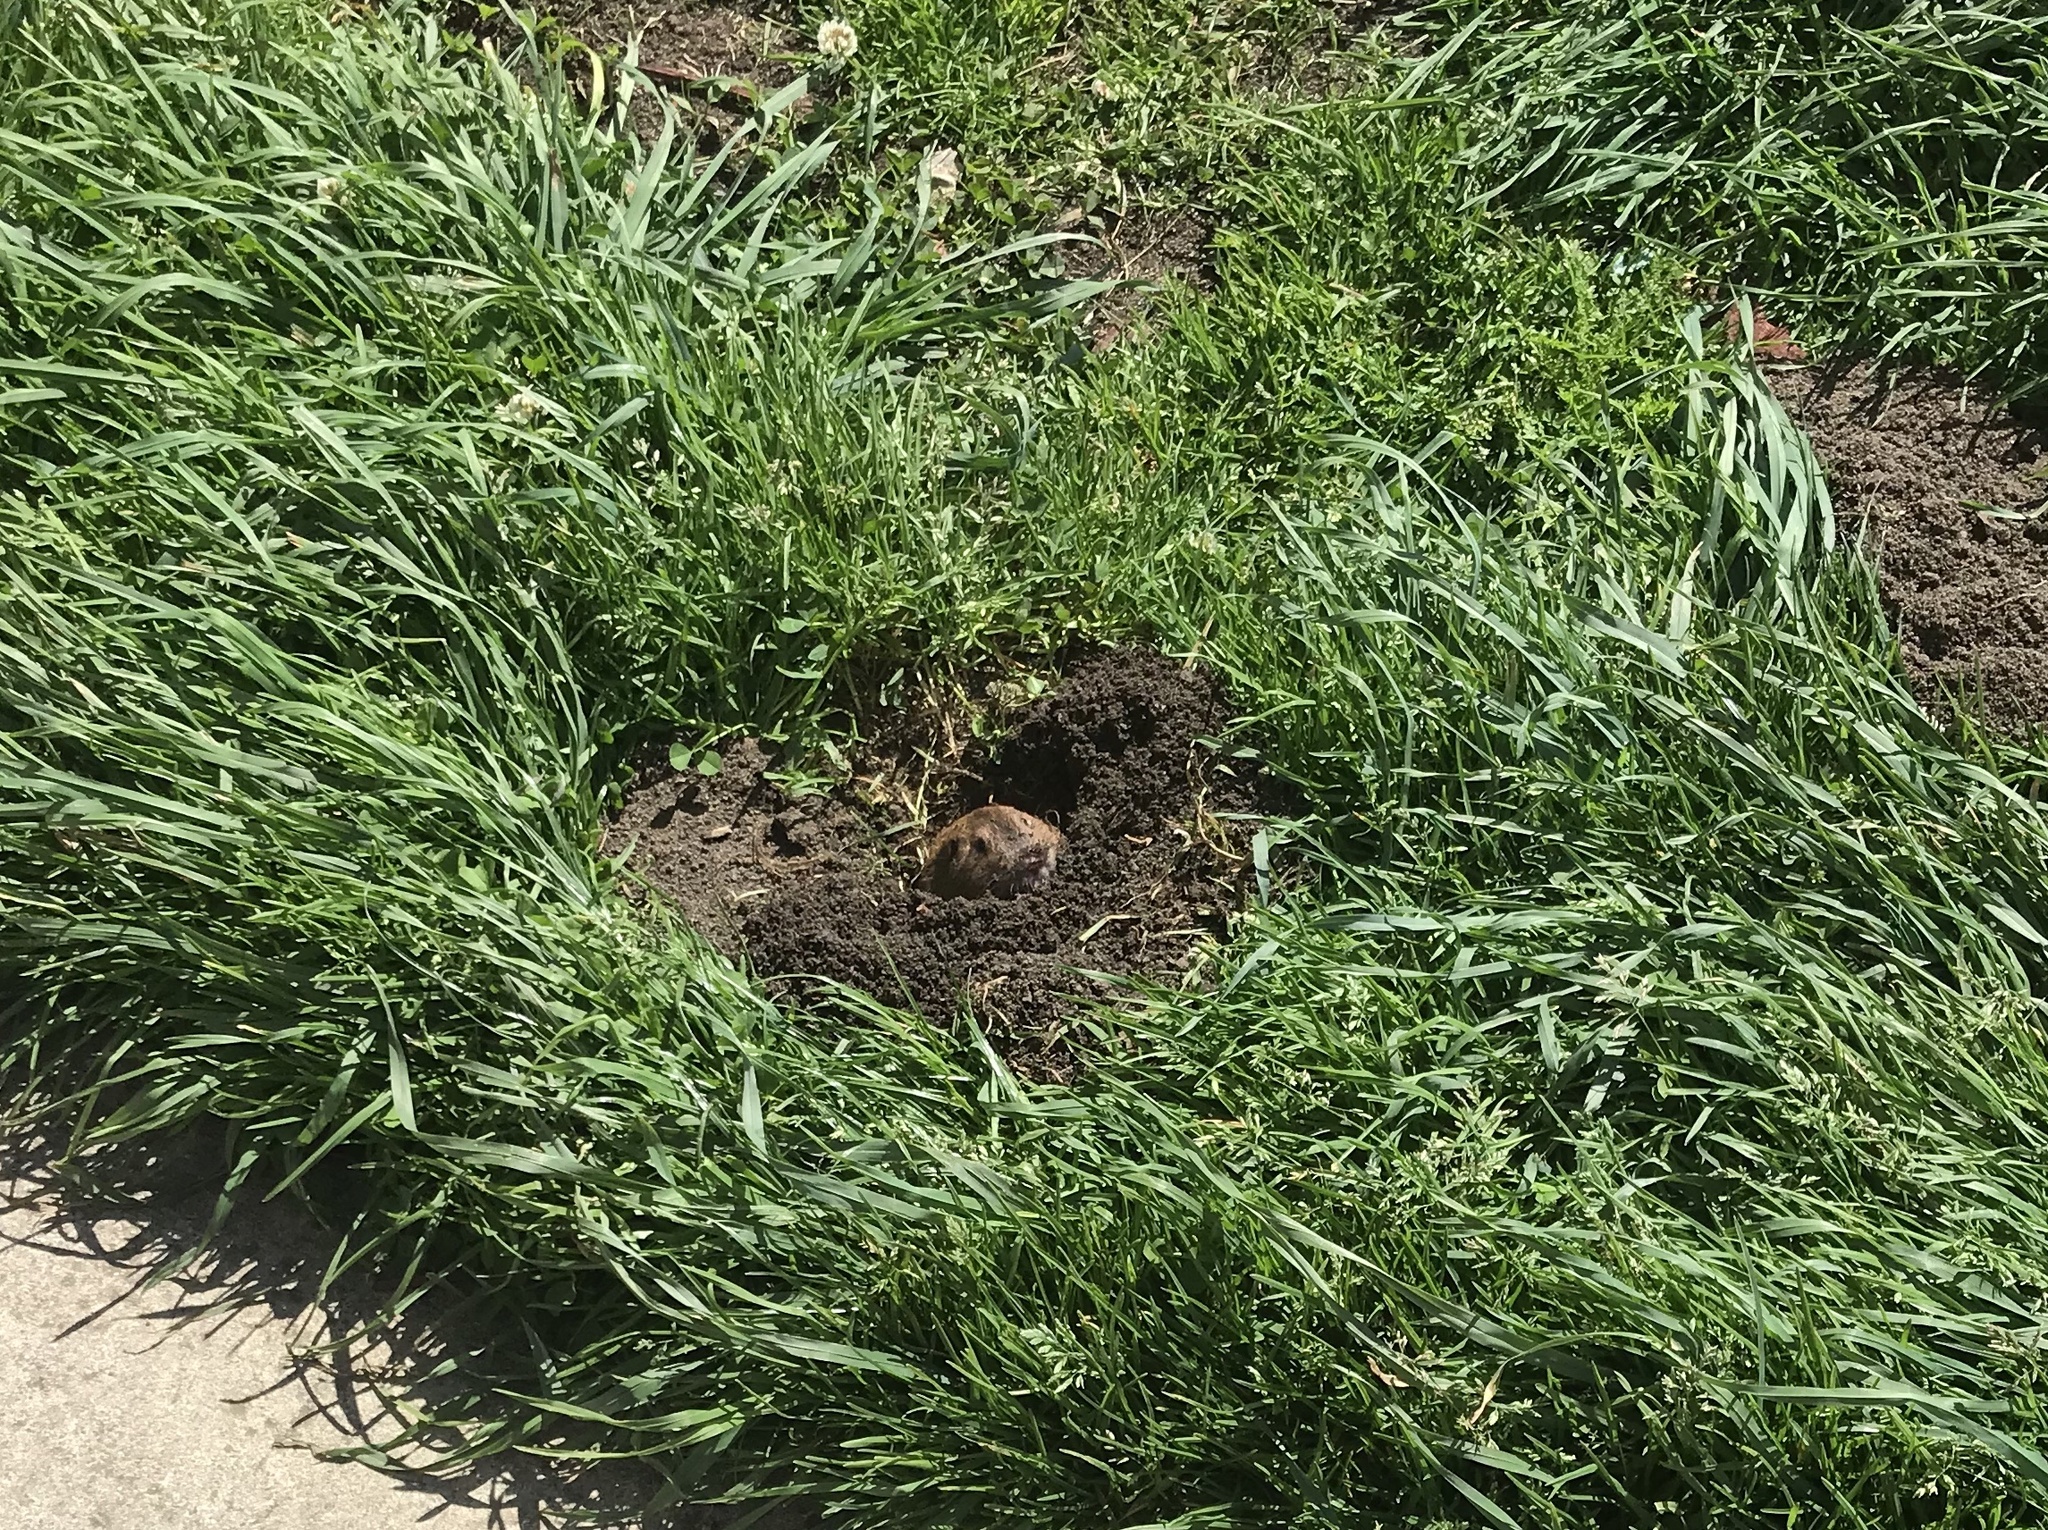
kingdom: Animalia
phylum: Chordata
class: Mammalia
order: Rodentia
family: Geomyidae
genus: Thomomys
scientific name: Thomomys bottae
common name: Botta's pocket gopher
